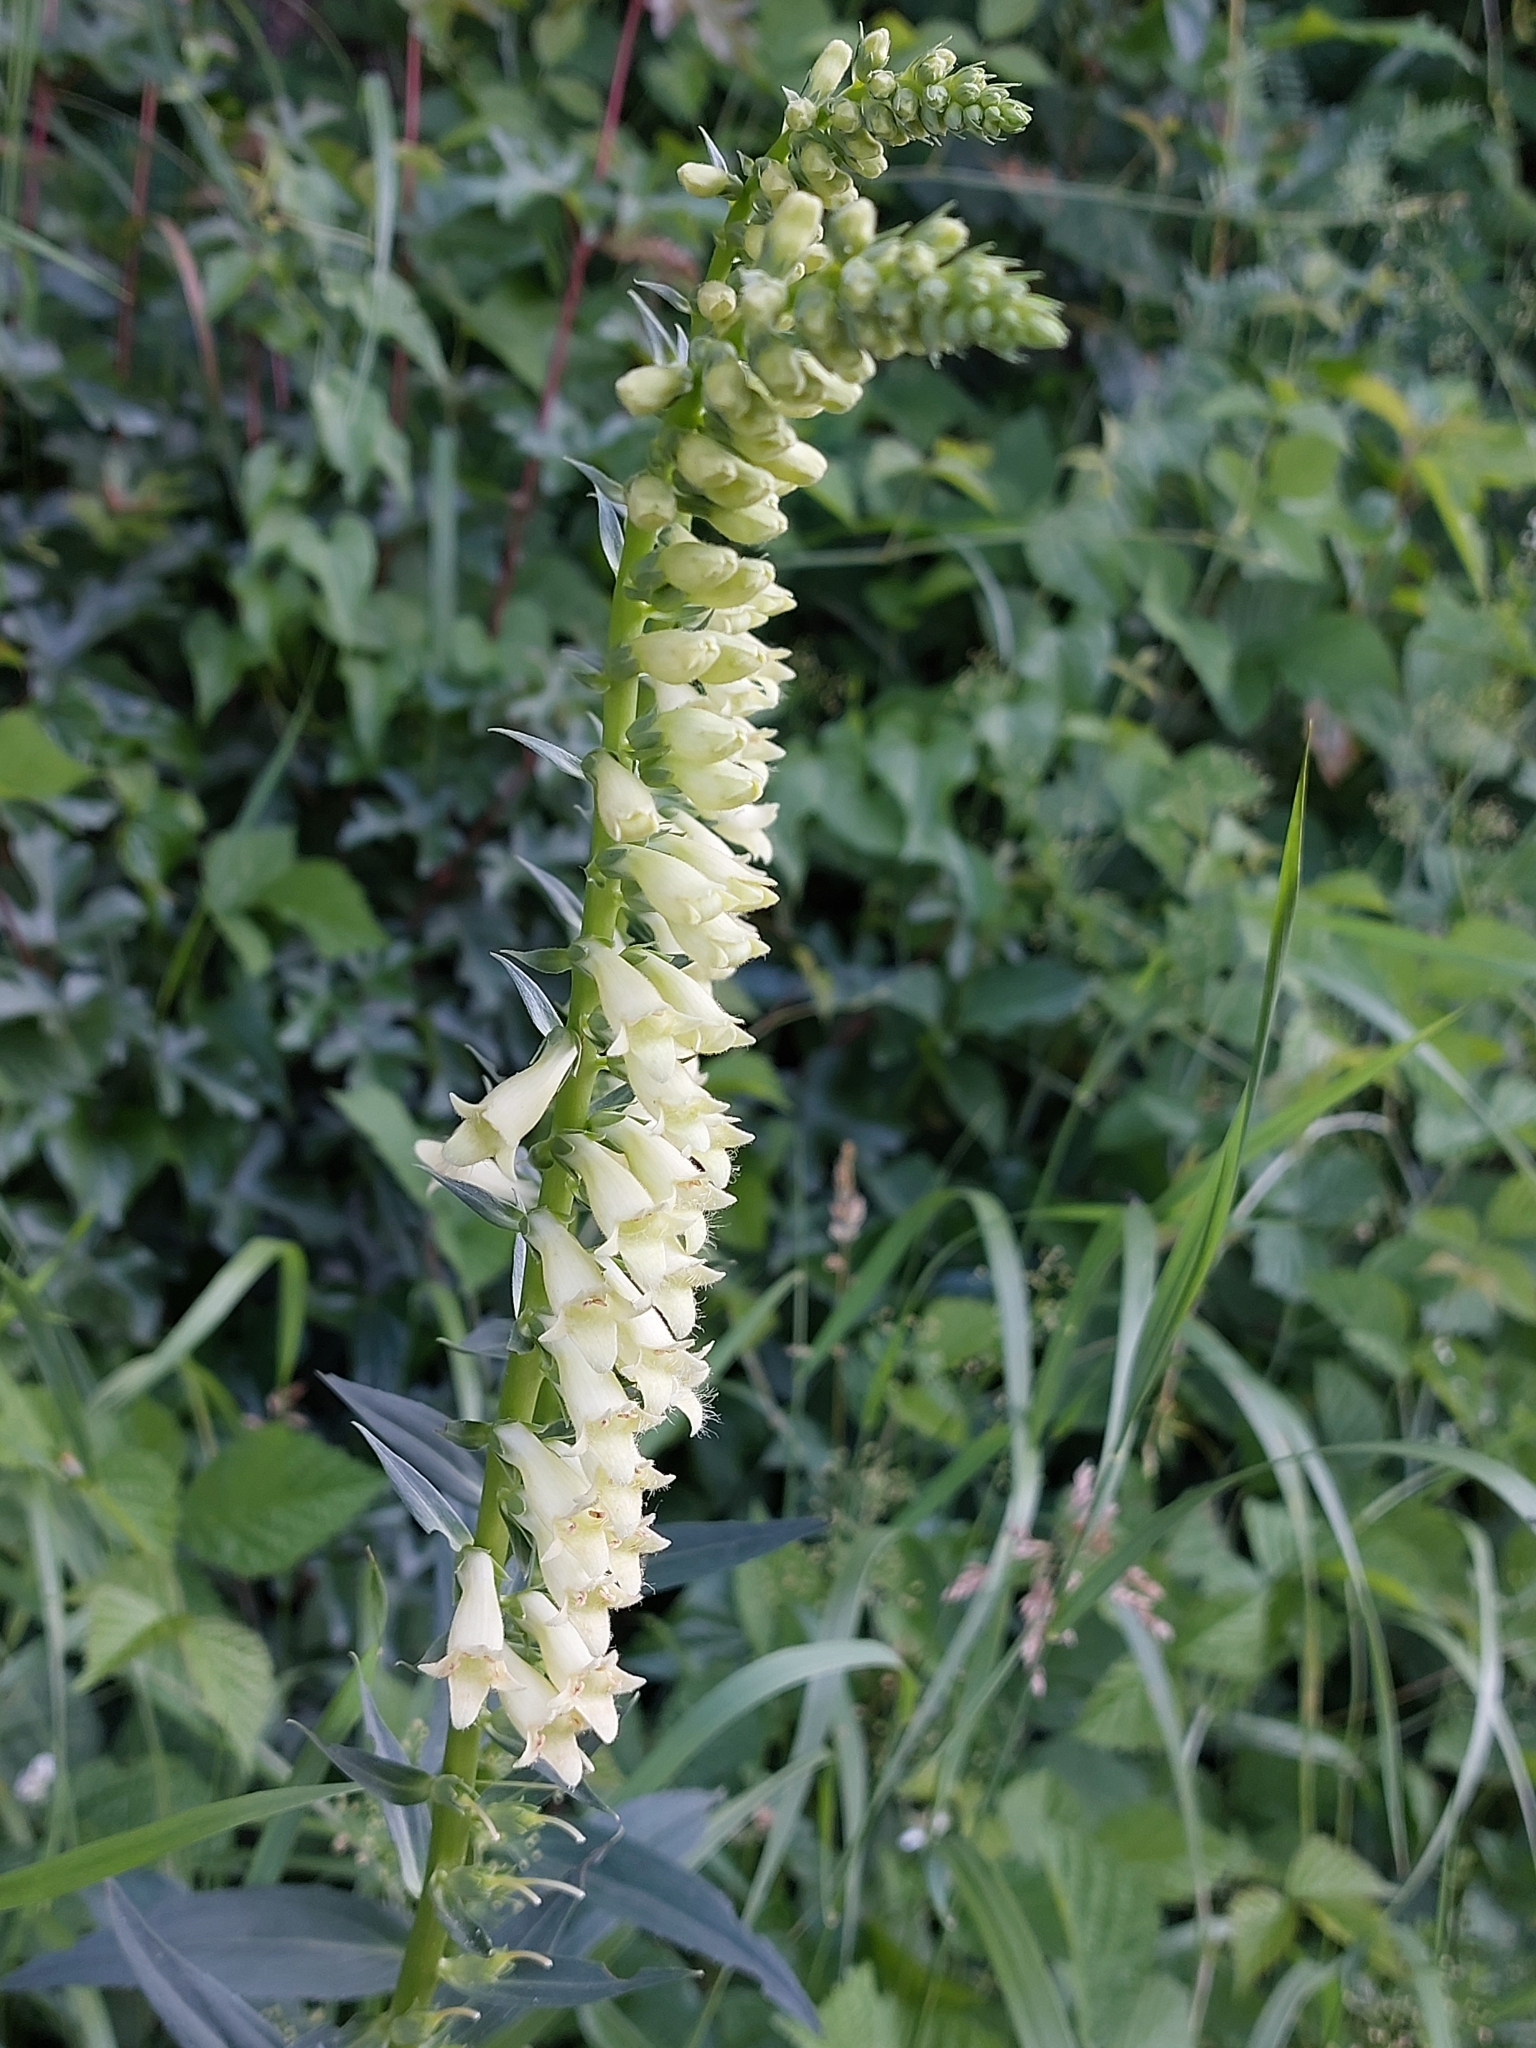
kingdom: Plantae
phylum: Tracheophyta
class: Magnoliopsida
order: Lamiales
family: Plantaginaceae
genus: Digitalis
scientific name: Digitalis lutea
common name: Straw foxglove
